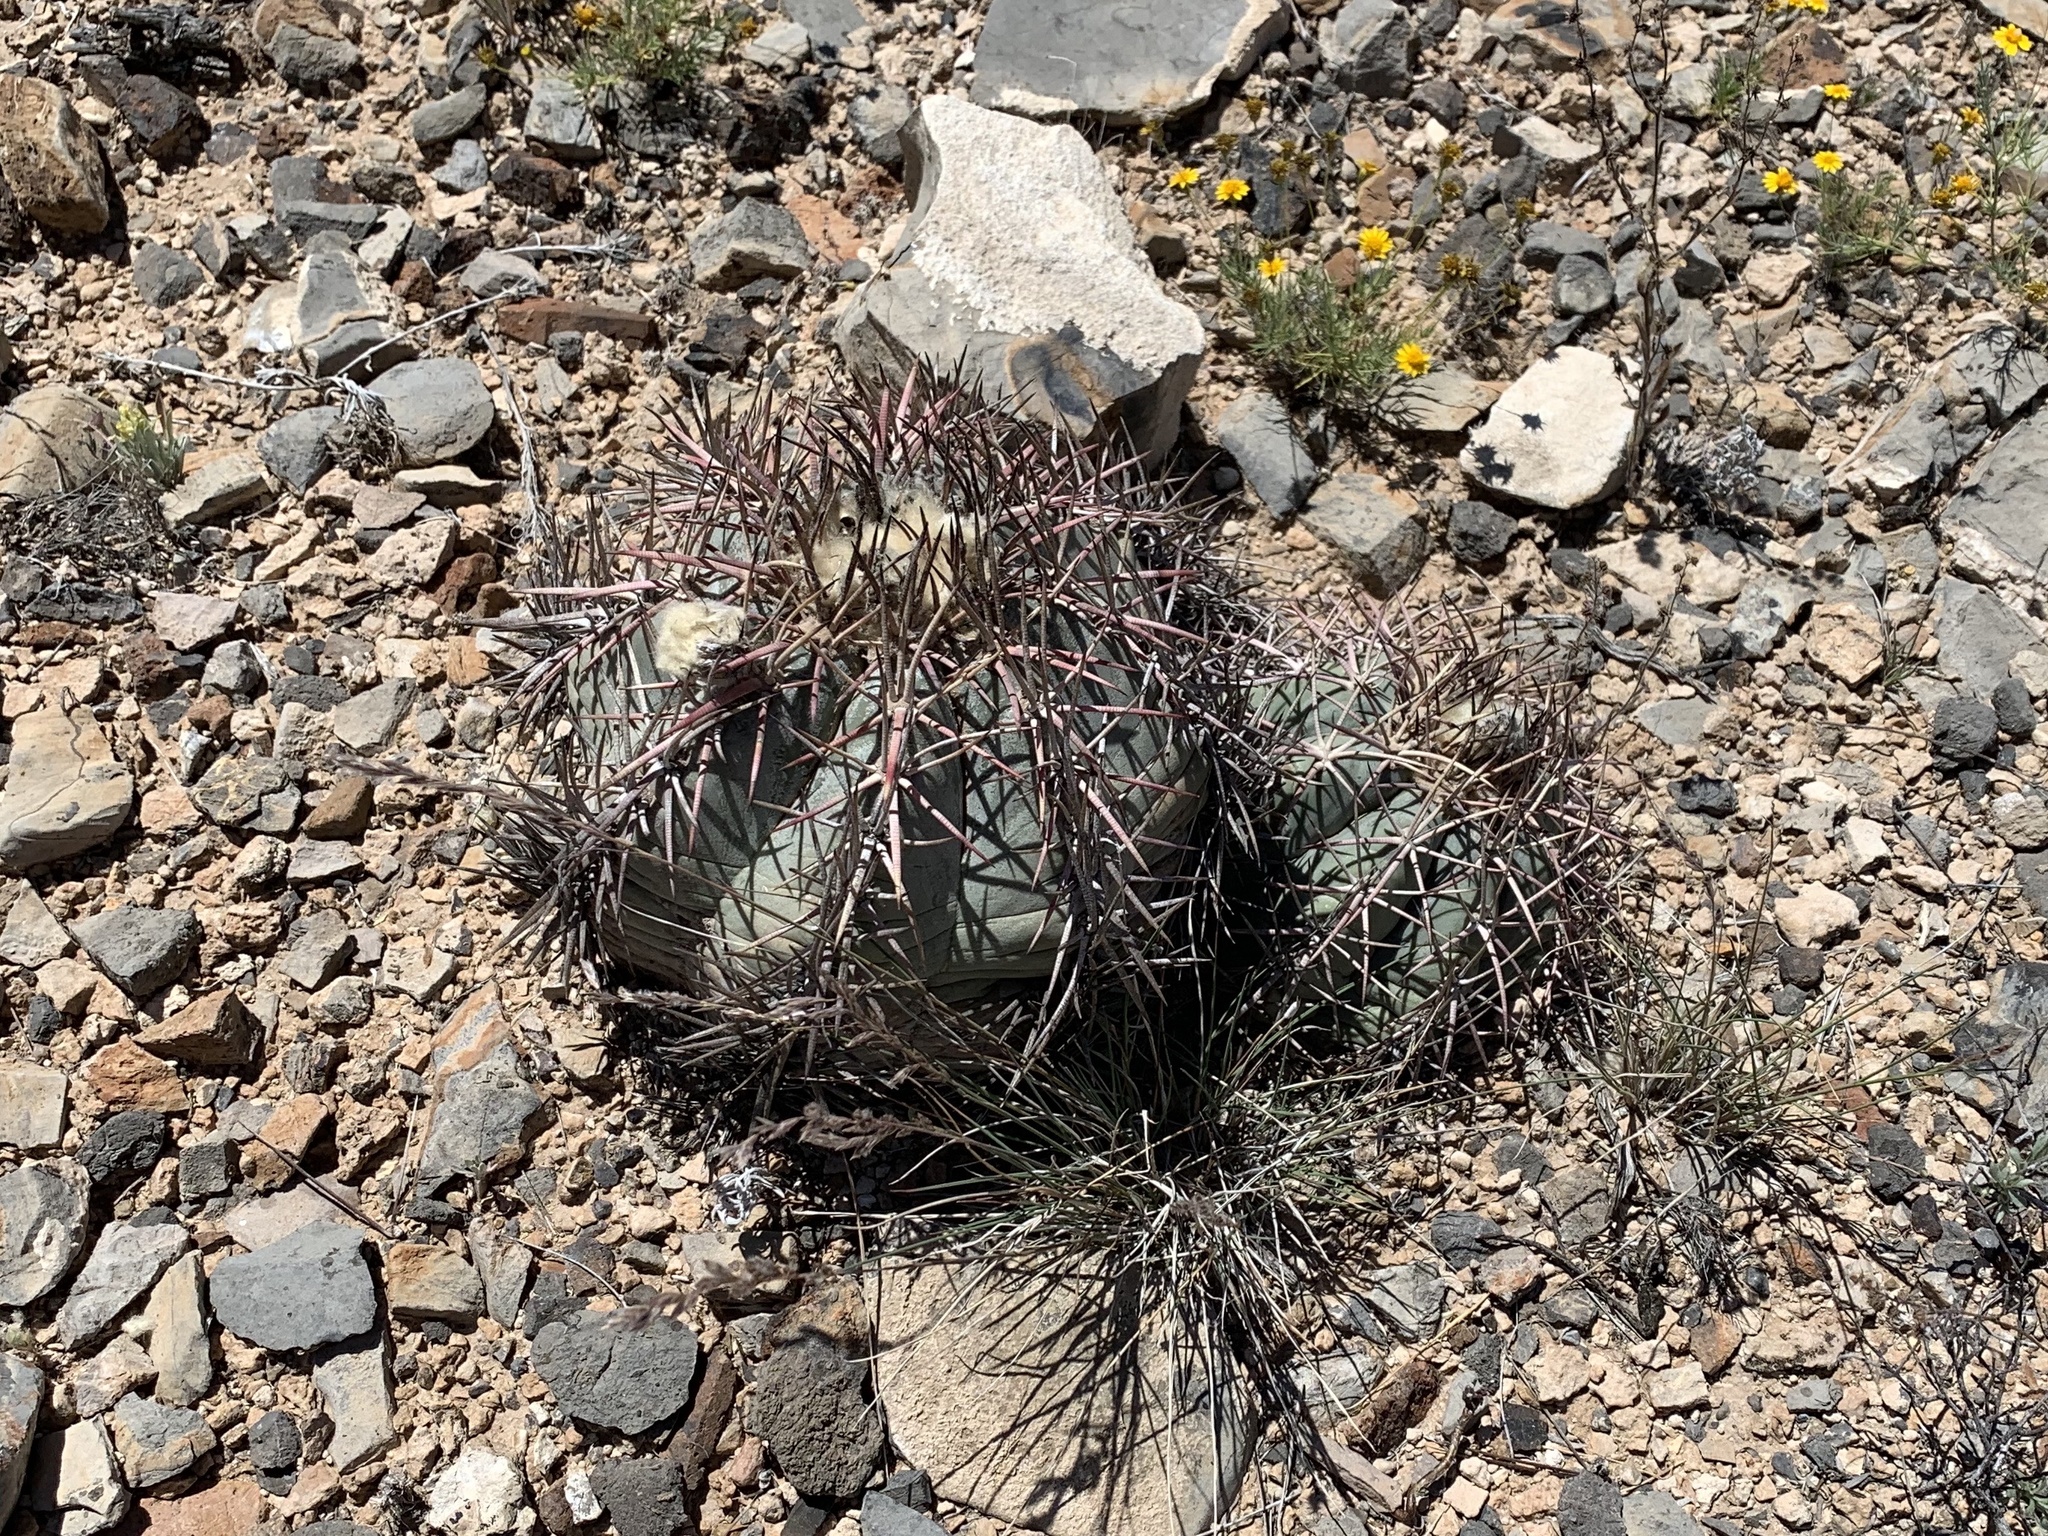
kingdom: Plantae
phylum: Tracheophyta
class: Magnoliopsida
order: Caryophyllales
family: Cactaceae
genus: Echinocactus
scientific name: Echinocactus horizonthalonius
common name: Devilshead
